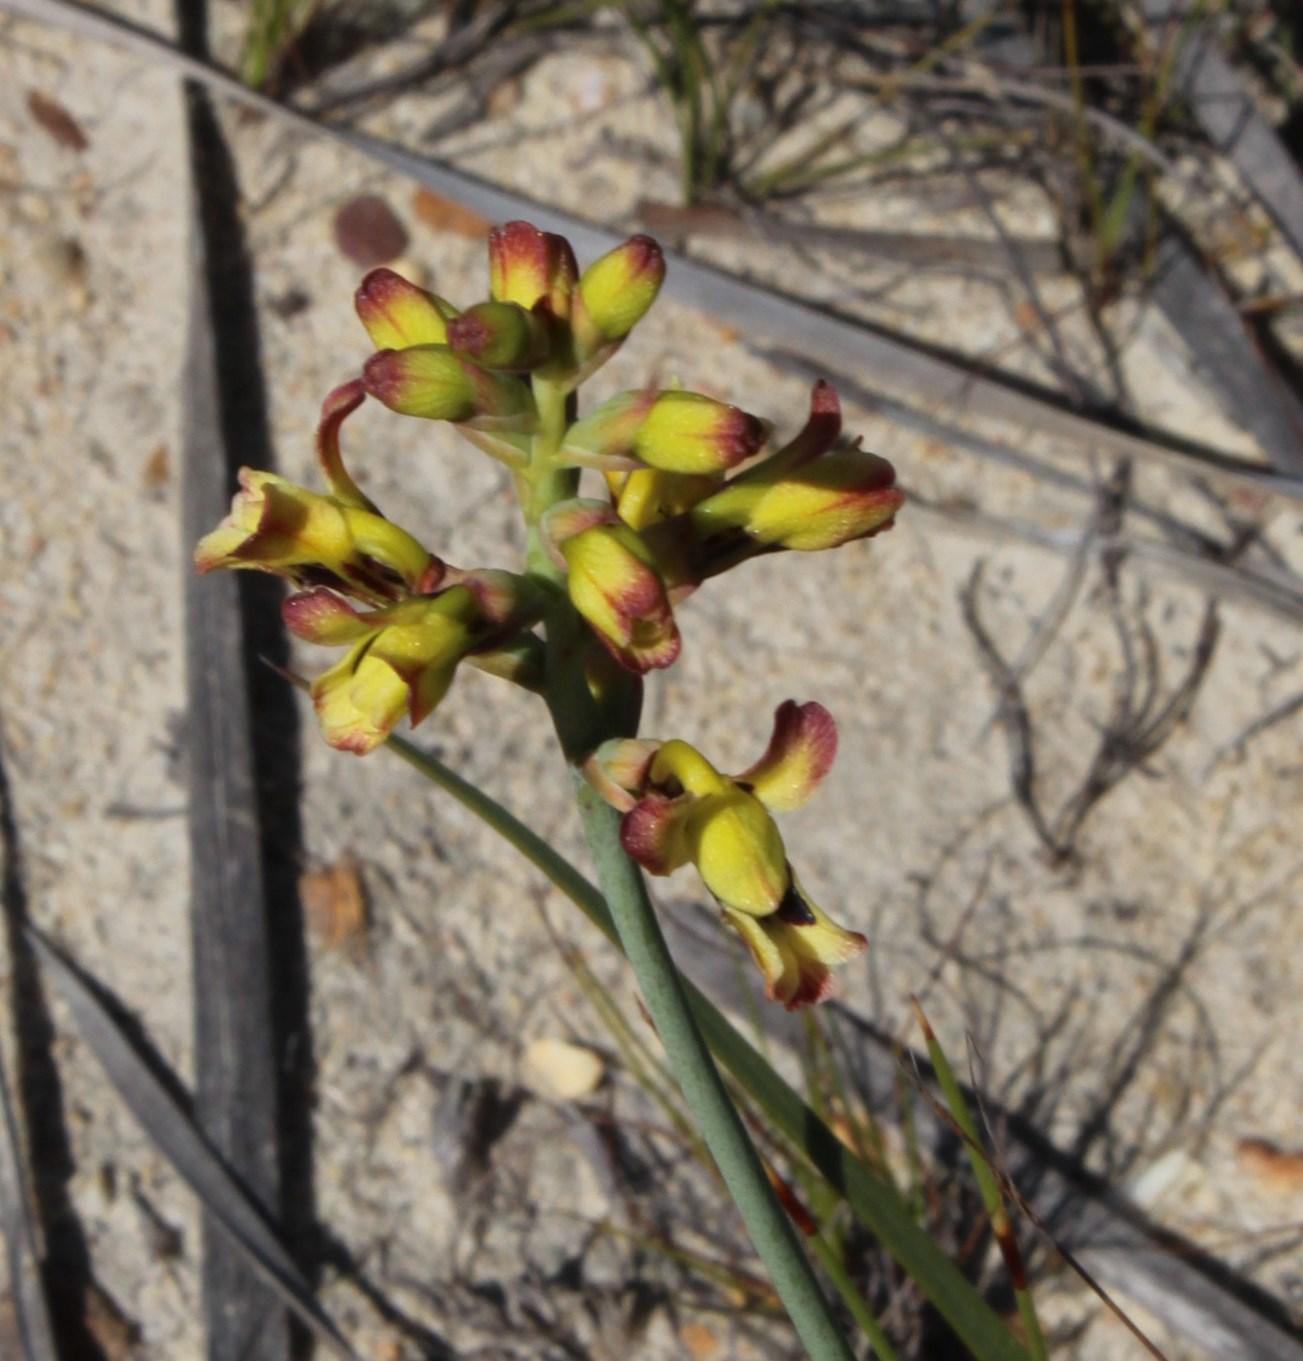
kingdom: Plantae
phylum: Tracheophyta
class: Liliopsida
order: Asparagales
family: Iridaceae
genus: Tritoniopsis
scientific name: Tritoniopsis parviflora
